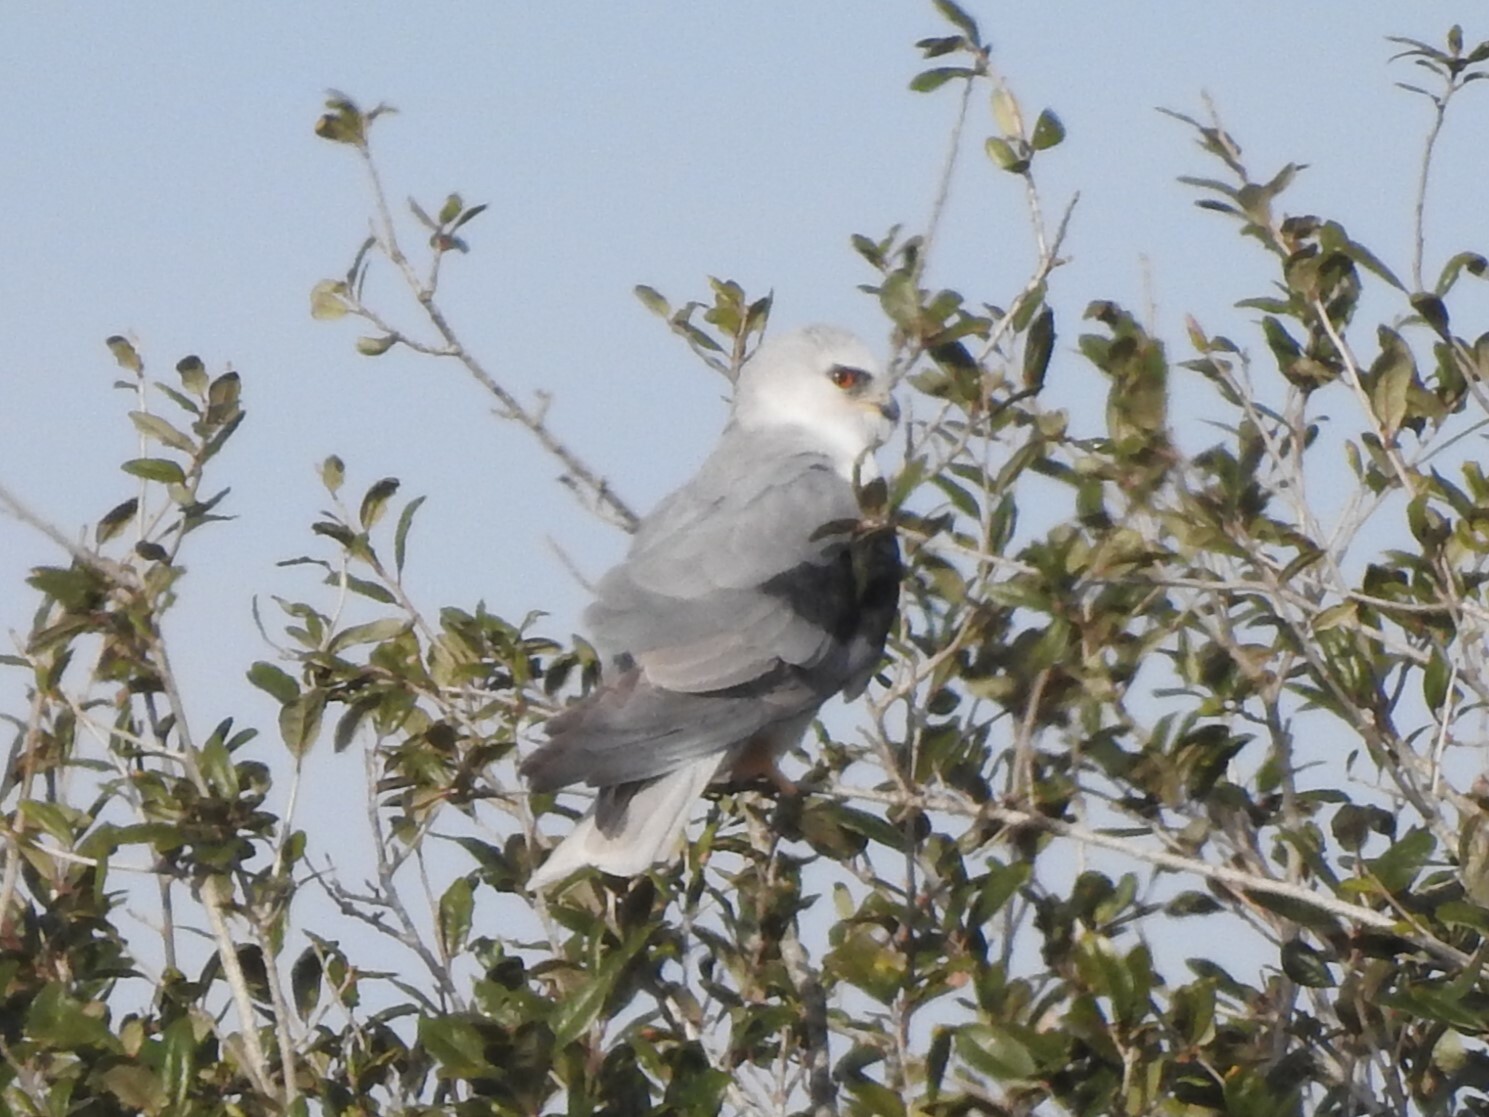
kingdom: Animalia
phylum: Chordata
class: Aves
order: Accipitriformes
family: Accipitridae
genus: Elanus
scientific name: Elanus leucurus
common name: White-tailed kite
